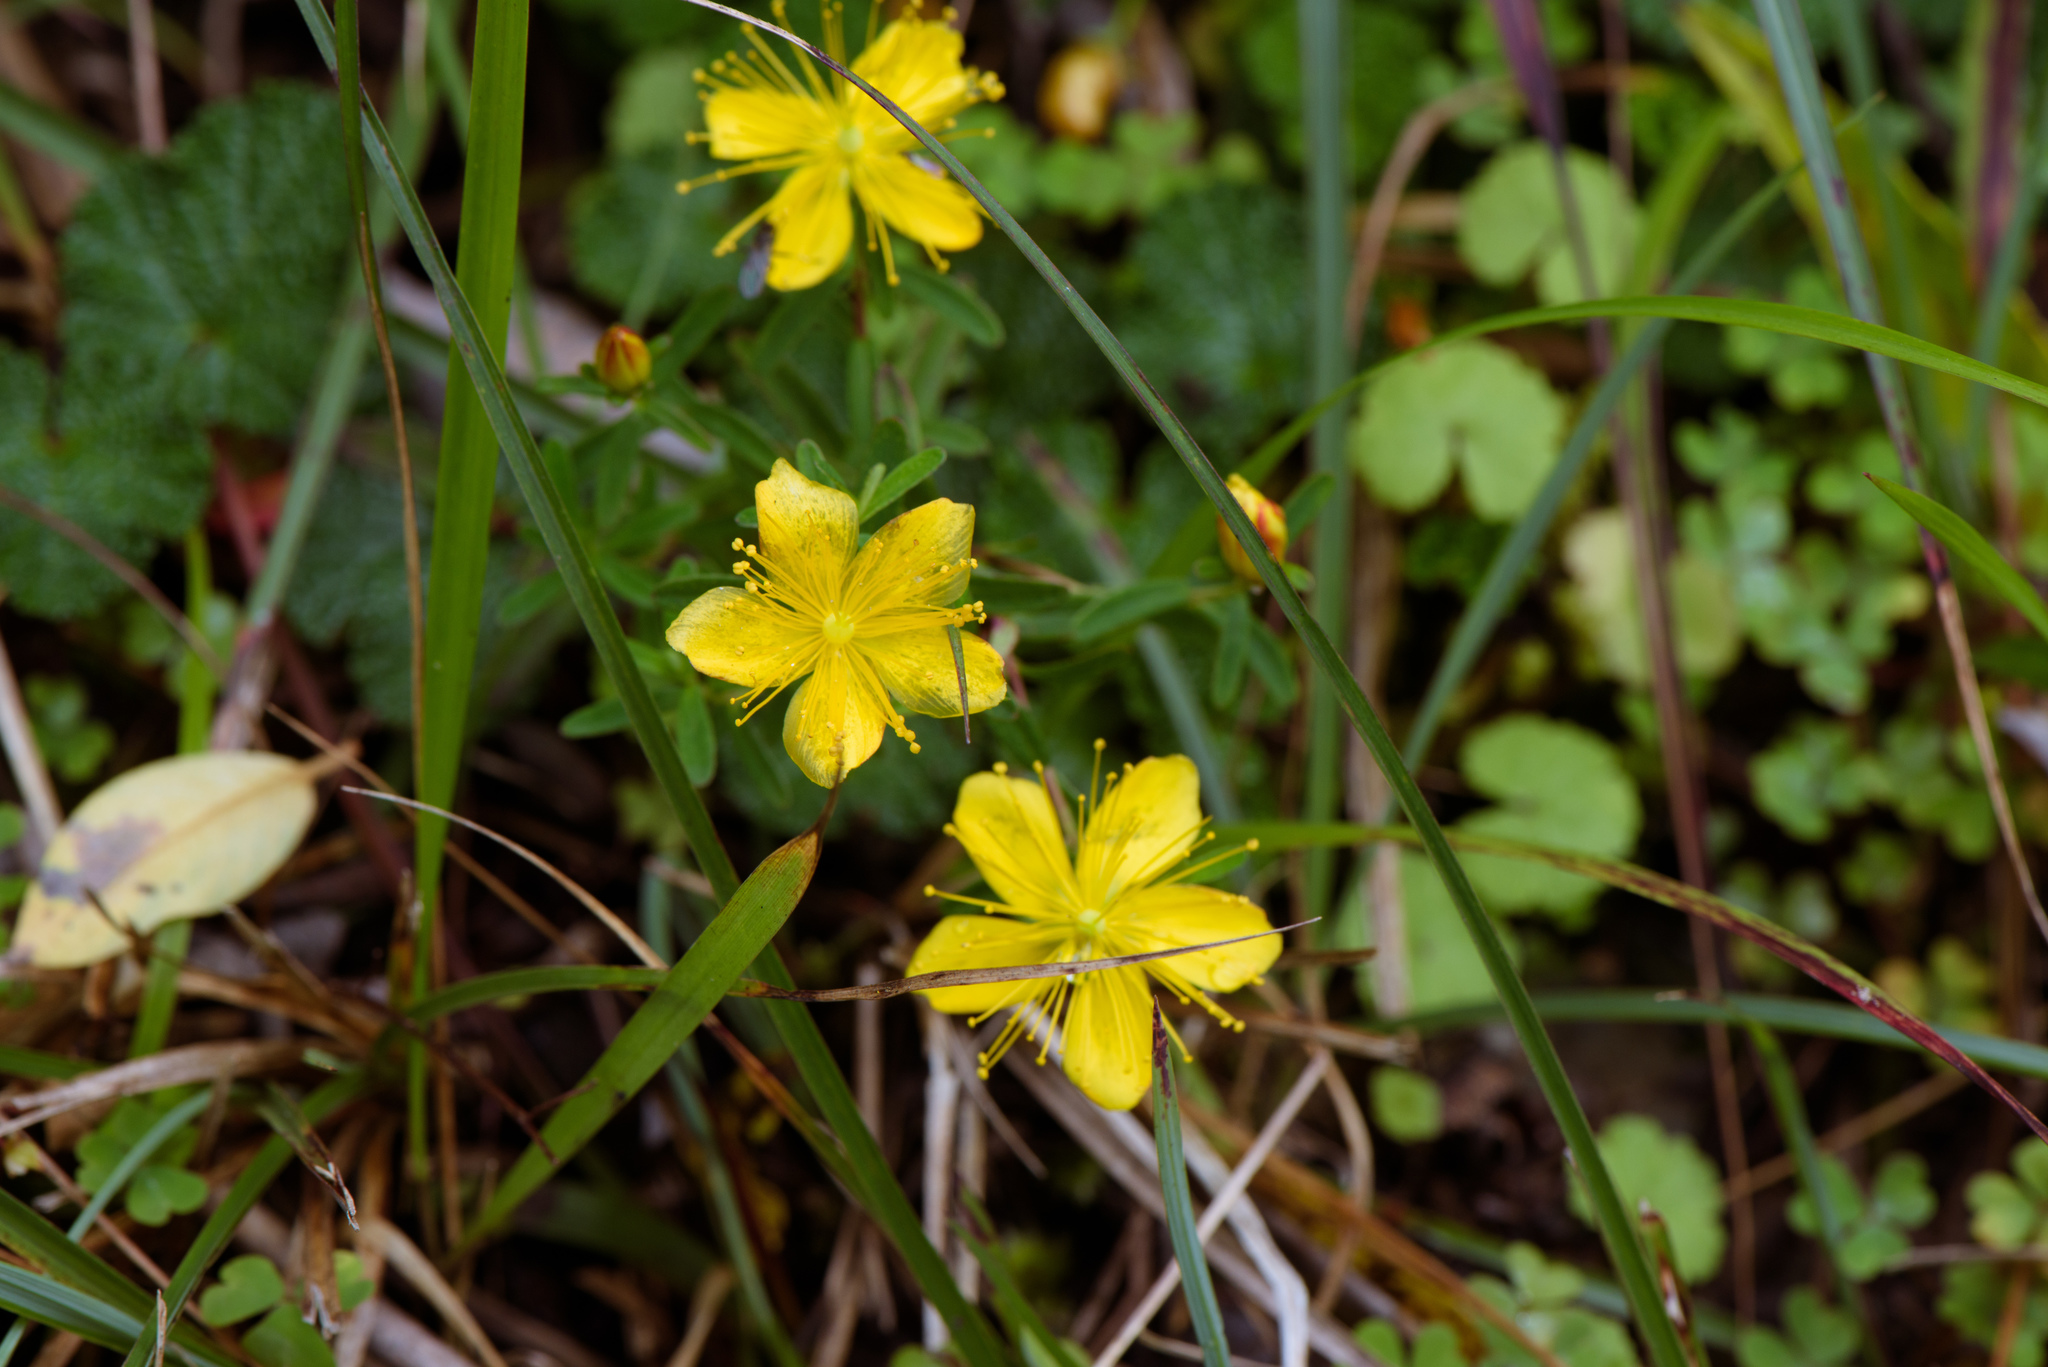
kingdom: Plantae
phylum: Tracheophyta
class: Magnoliopsida
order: Malpighiales
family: Hypericaceae
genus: Hypericum
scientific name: Hypericum nagasawae
